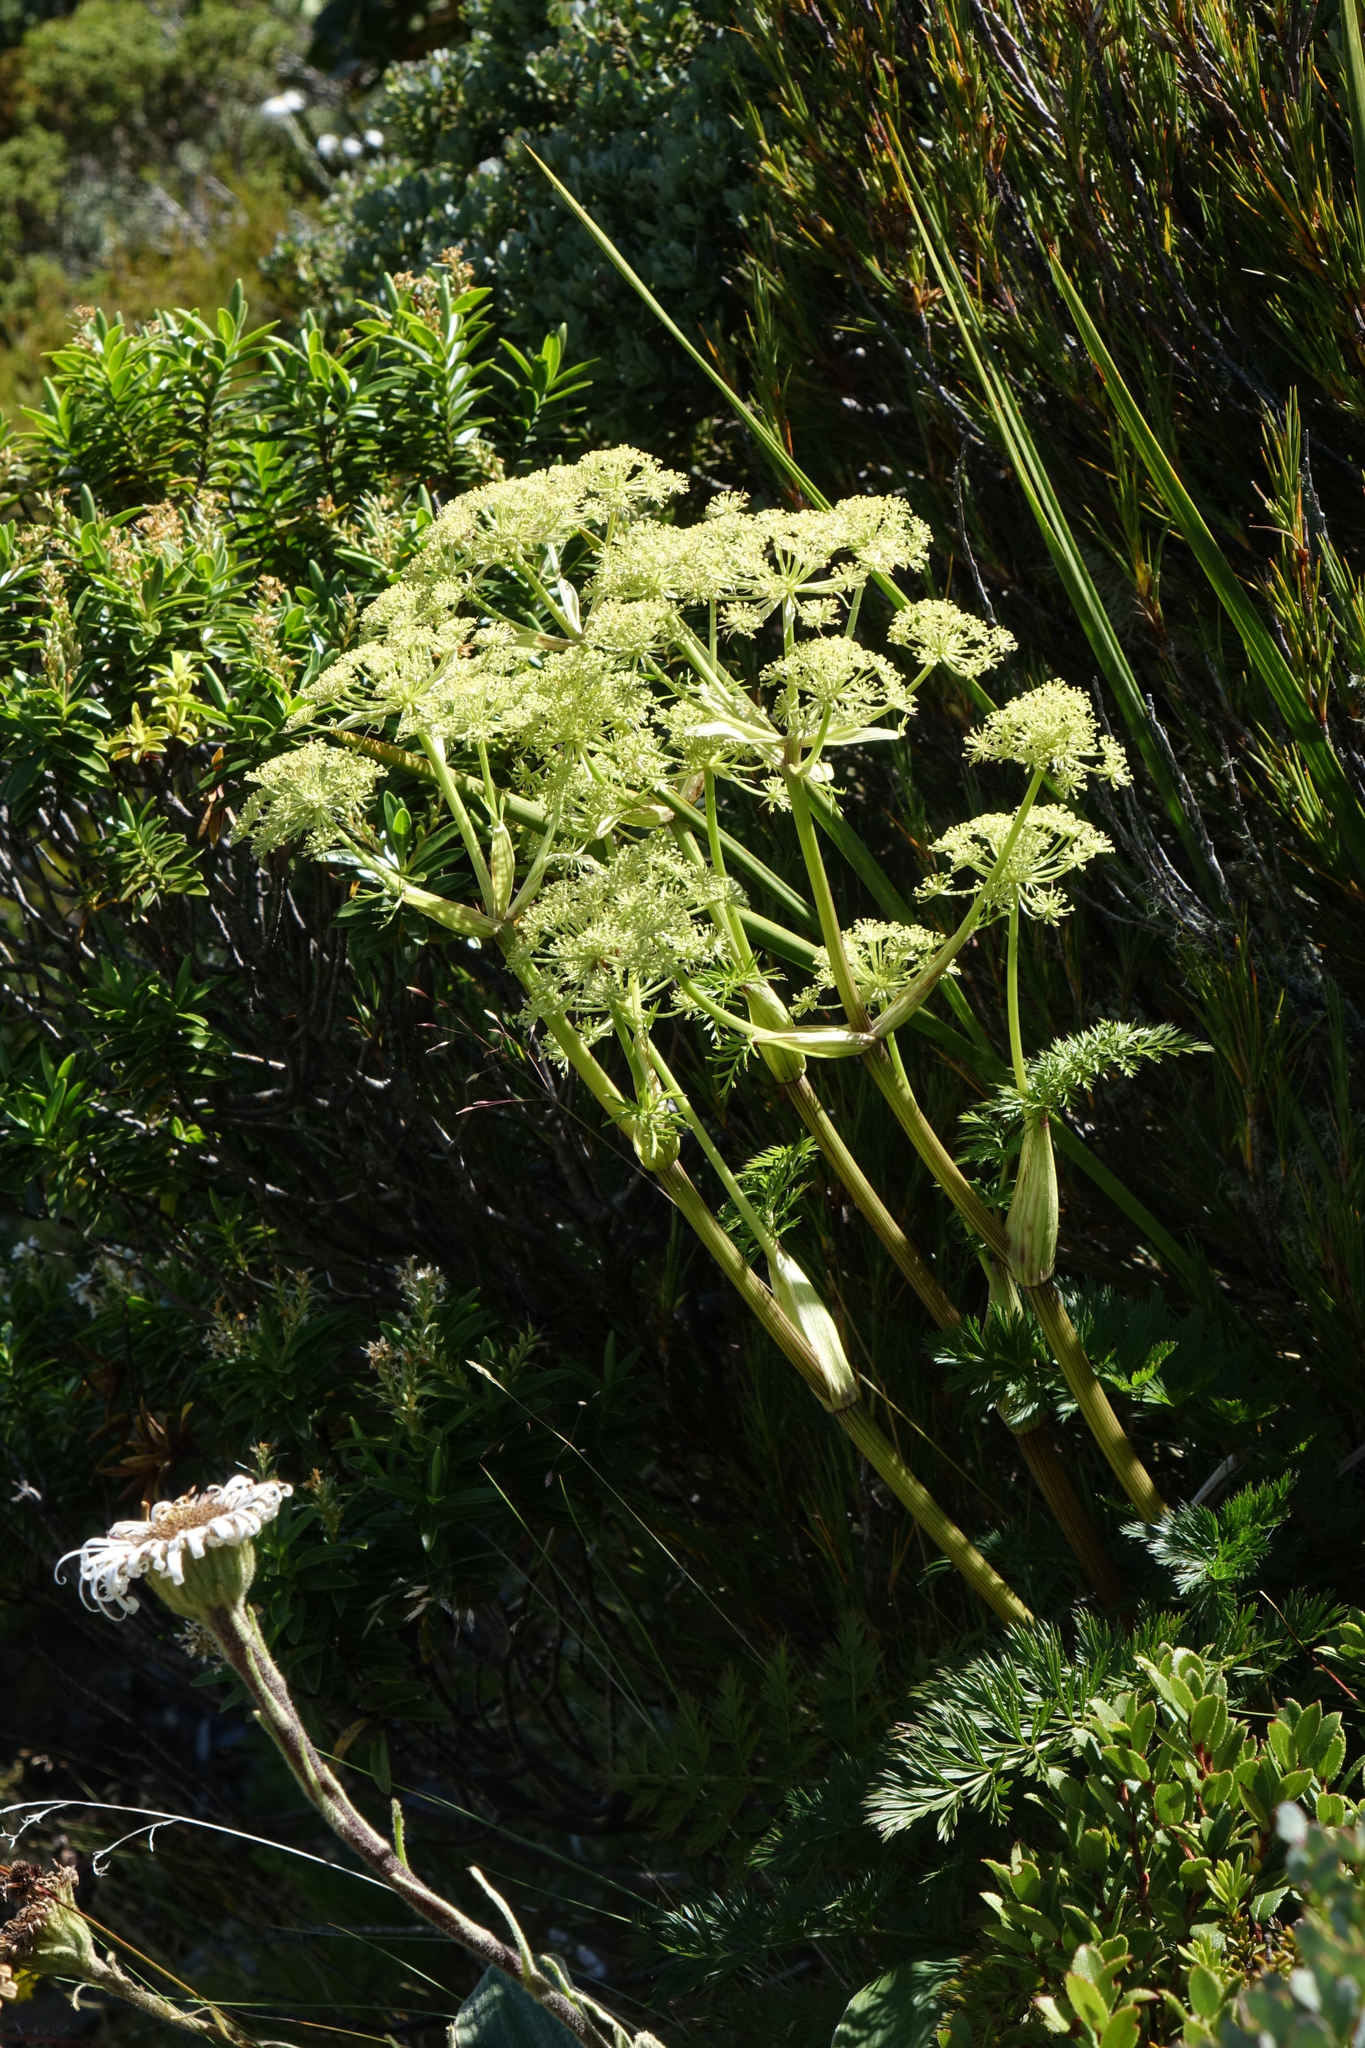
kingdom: Plantae
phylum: Tracheophyta
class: Magnoliopsida
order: Apiales
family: Apiaceae
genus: Anisotome
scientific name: Anisotome haastii
